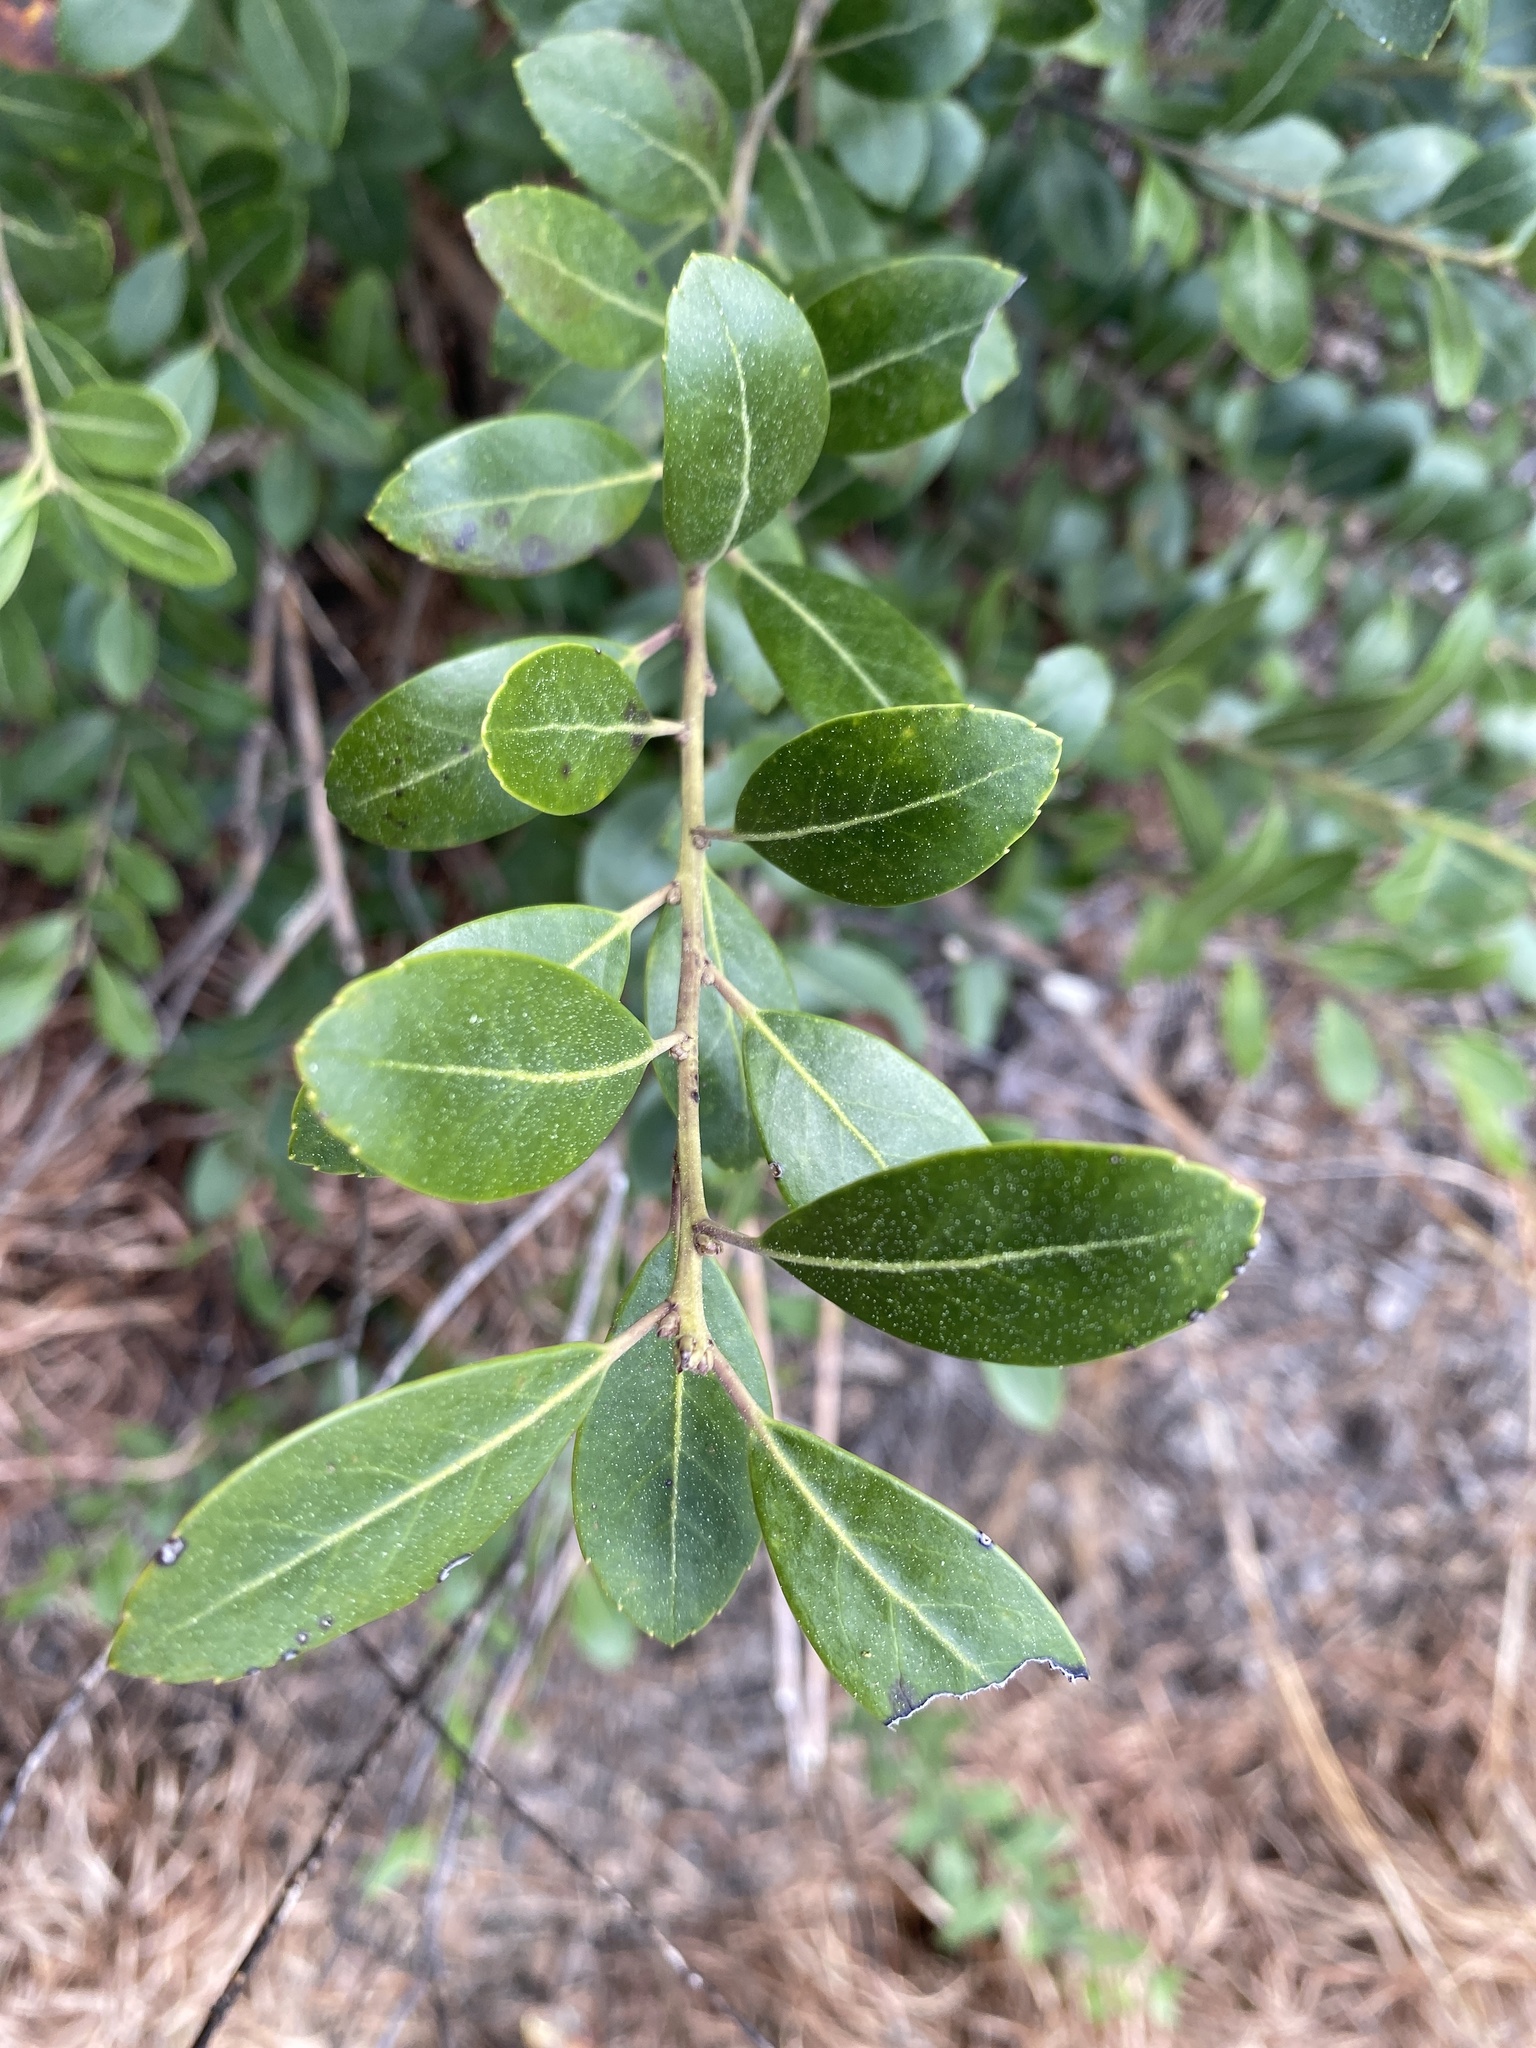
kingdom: Plantae
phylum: Tracheophyta
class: Magnoliopsida
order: Aquifoliales
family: Aquifoliaceae
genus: Ilex
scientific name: Ilex glabra
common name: Bitter gallberry
